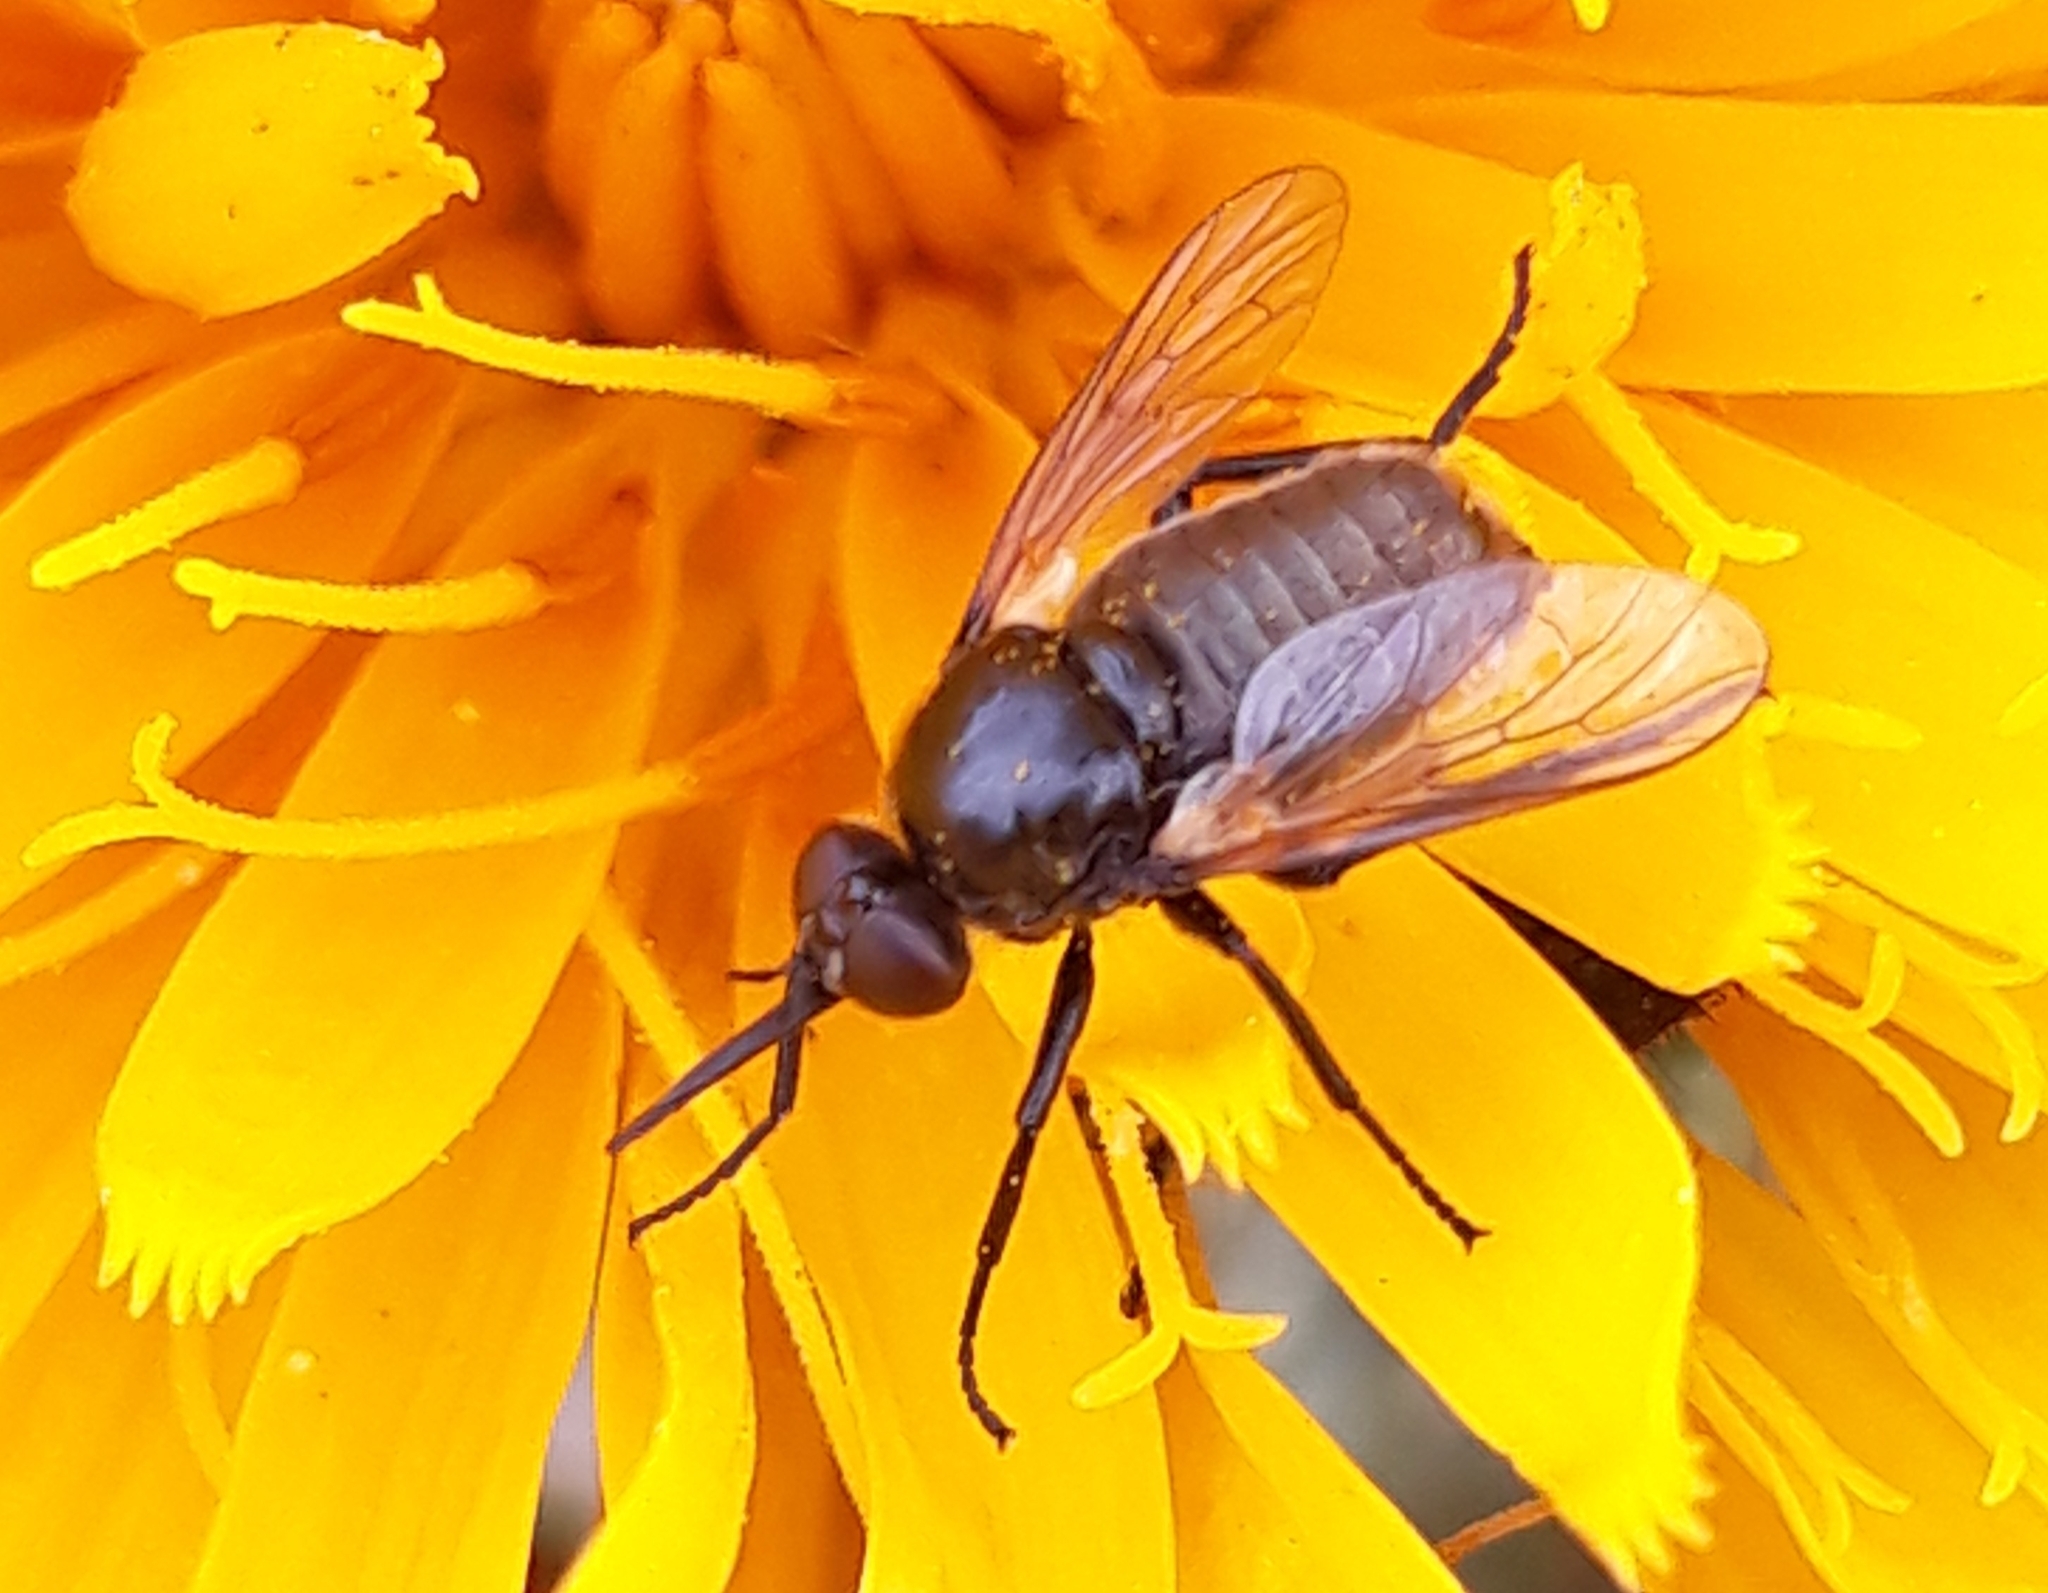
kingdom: Animalia
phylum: Arthropoda
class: Insecta
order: Diptera
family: Bombyliidae
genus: Usia
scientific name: Usia florea
